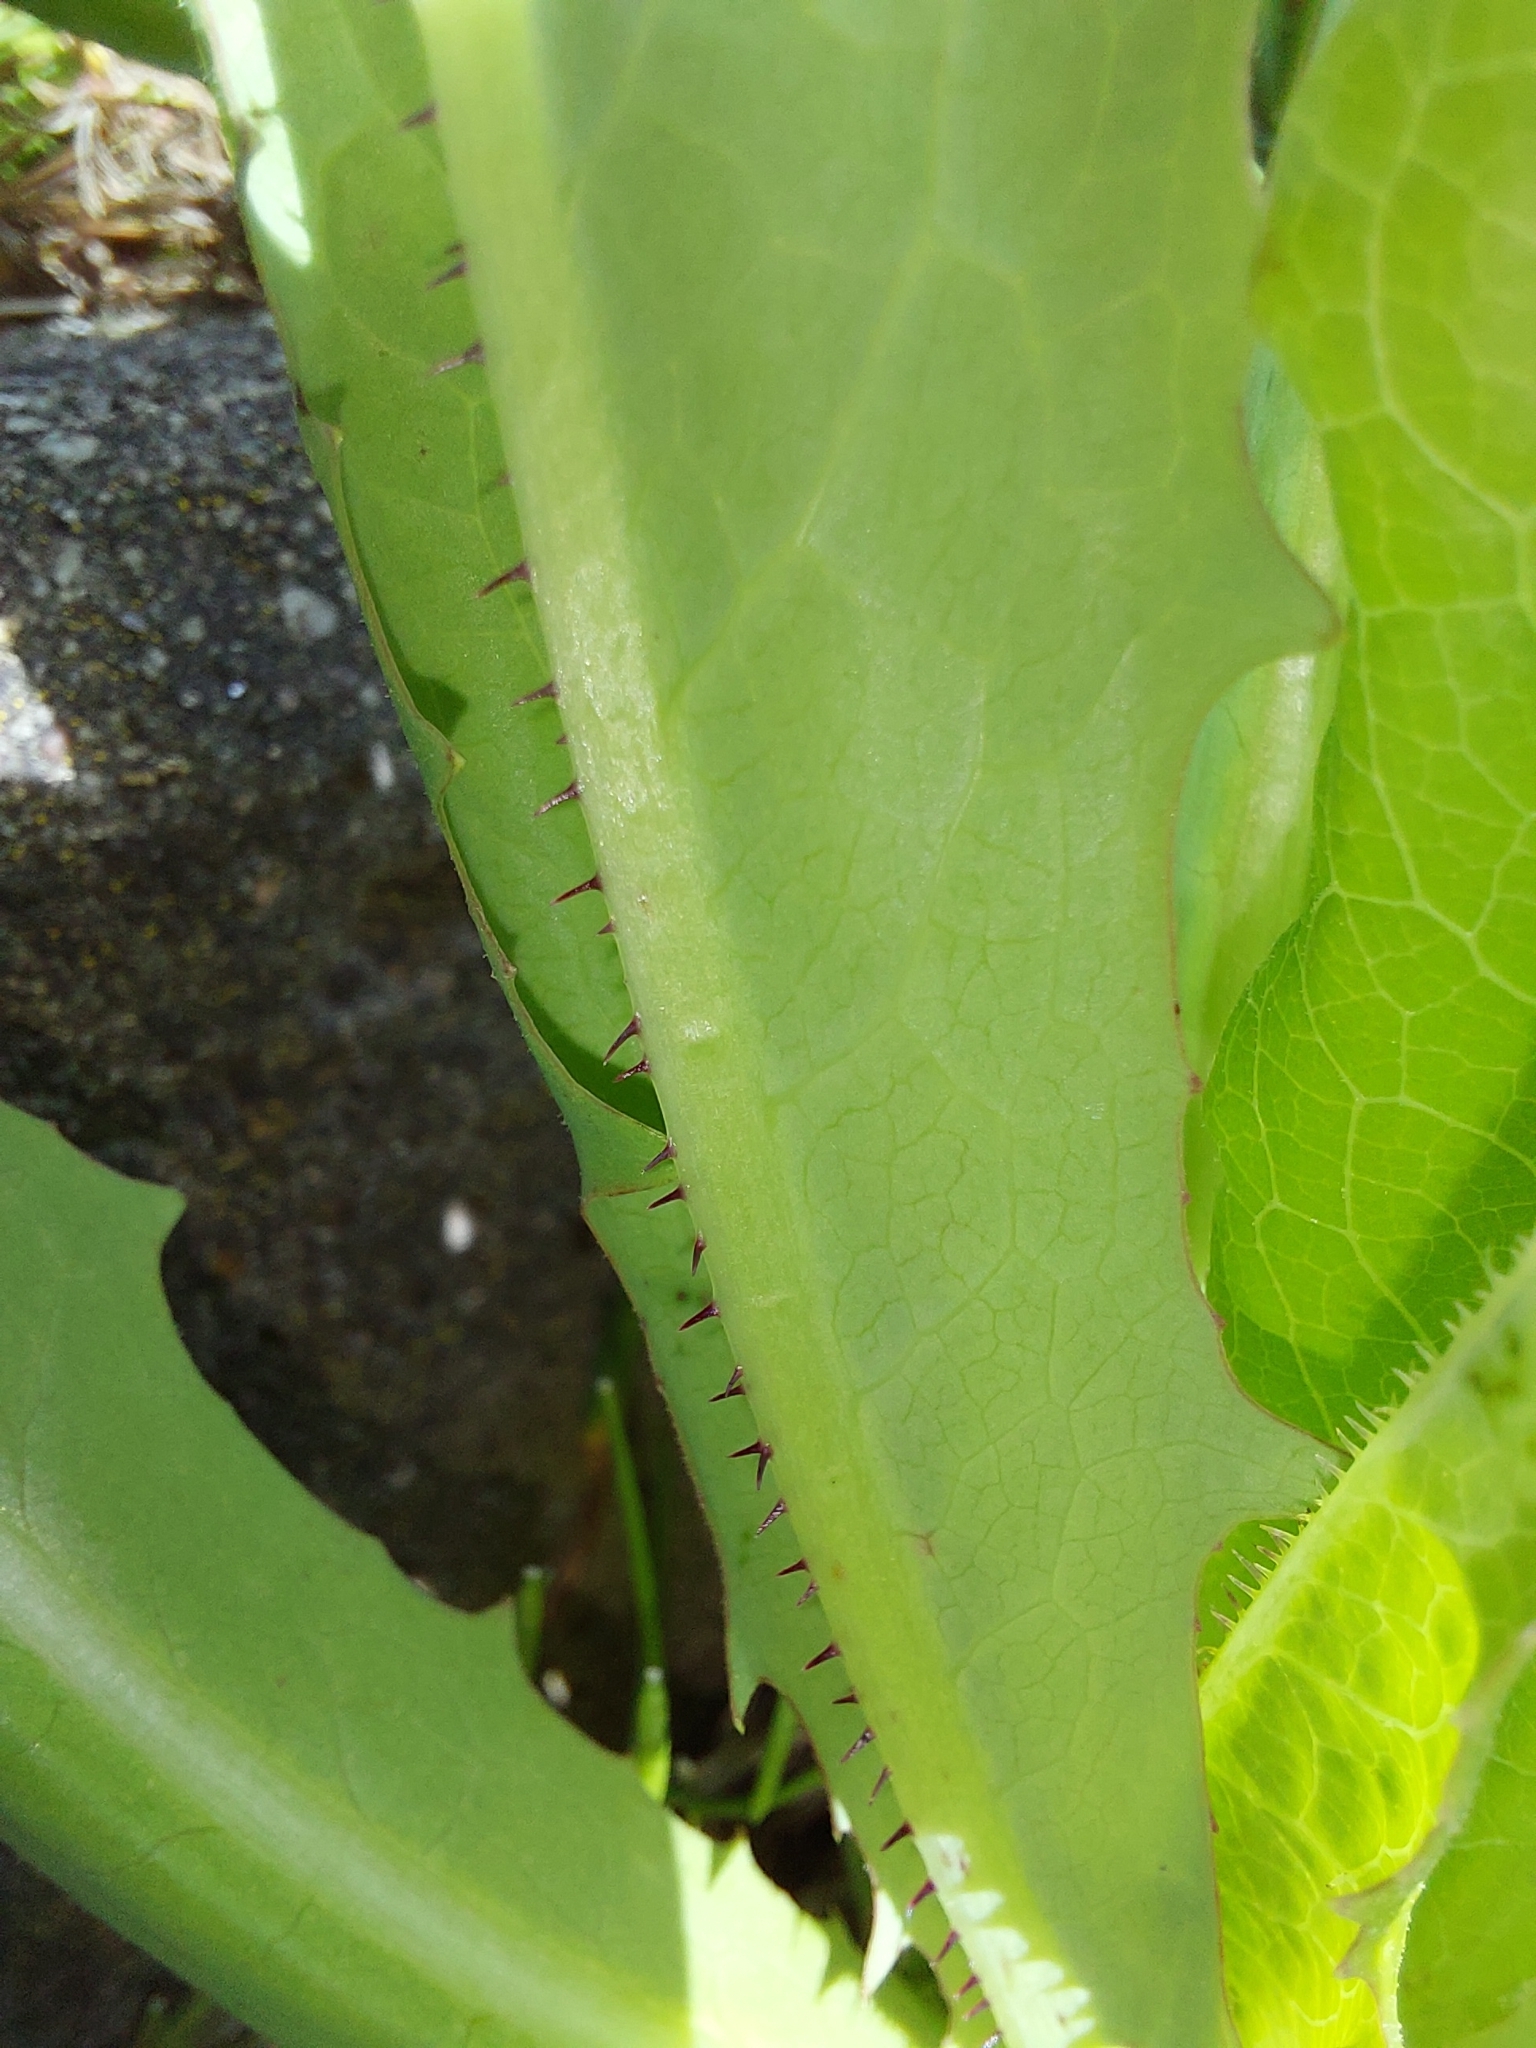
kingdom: Plantae
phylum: Tracheophyta
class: Magnoliopsida
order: Asterales
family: Asteraceae
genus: Lactuca
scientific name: Lactuca serriola
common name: Prickly lettuce
